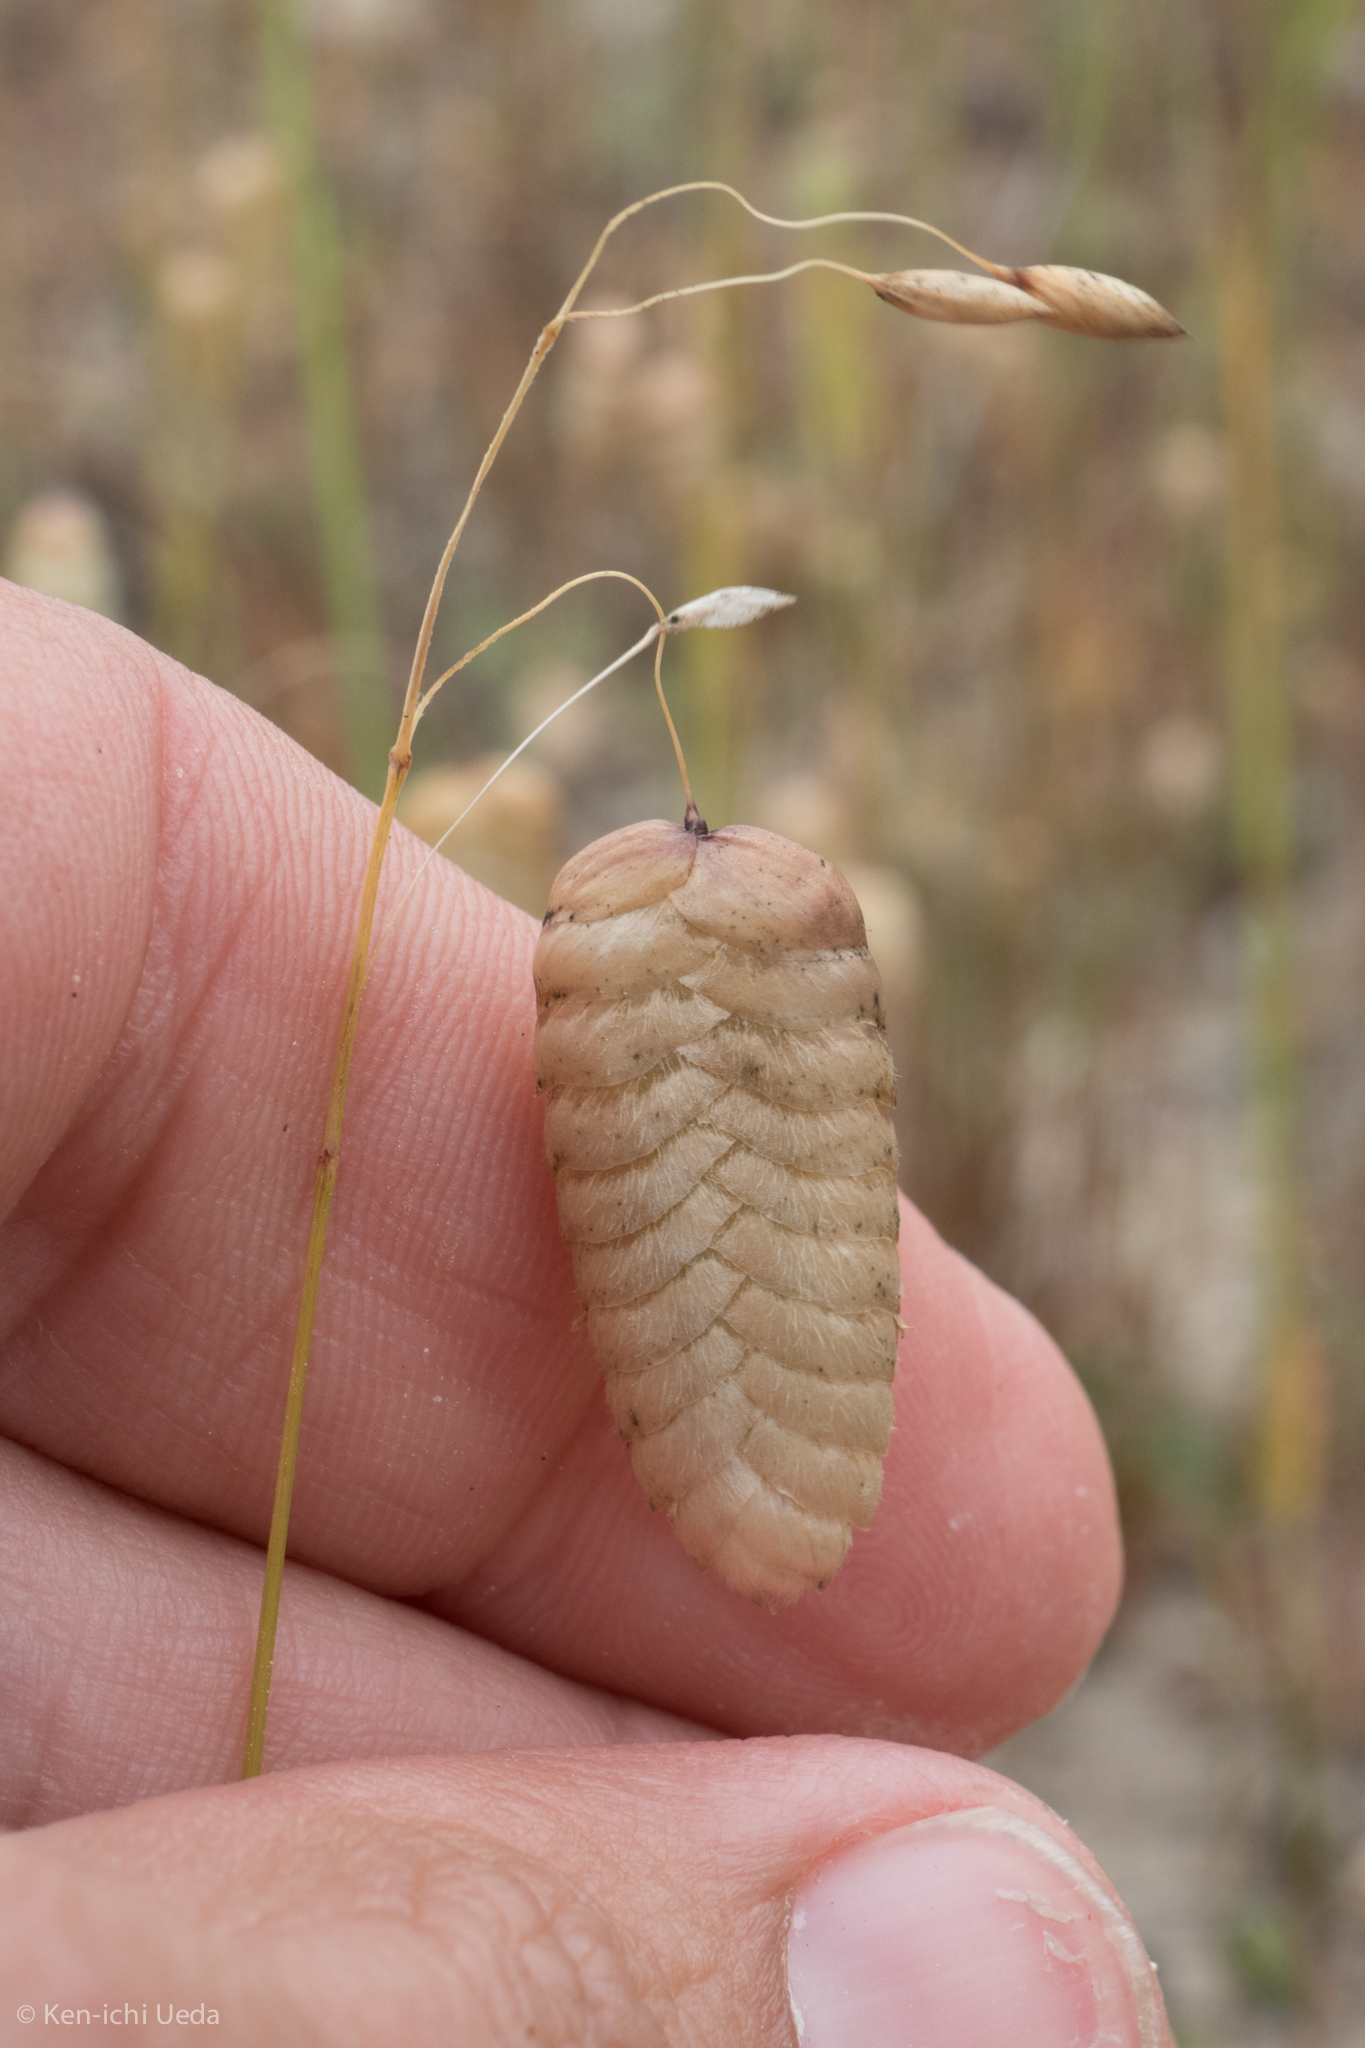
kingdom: Plantae
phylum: Tracheophyta
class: Liliopsida
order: Poales
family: Poaceae
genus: Briza
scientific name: Briza maxima
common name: Big quakinggrass
